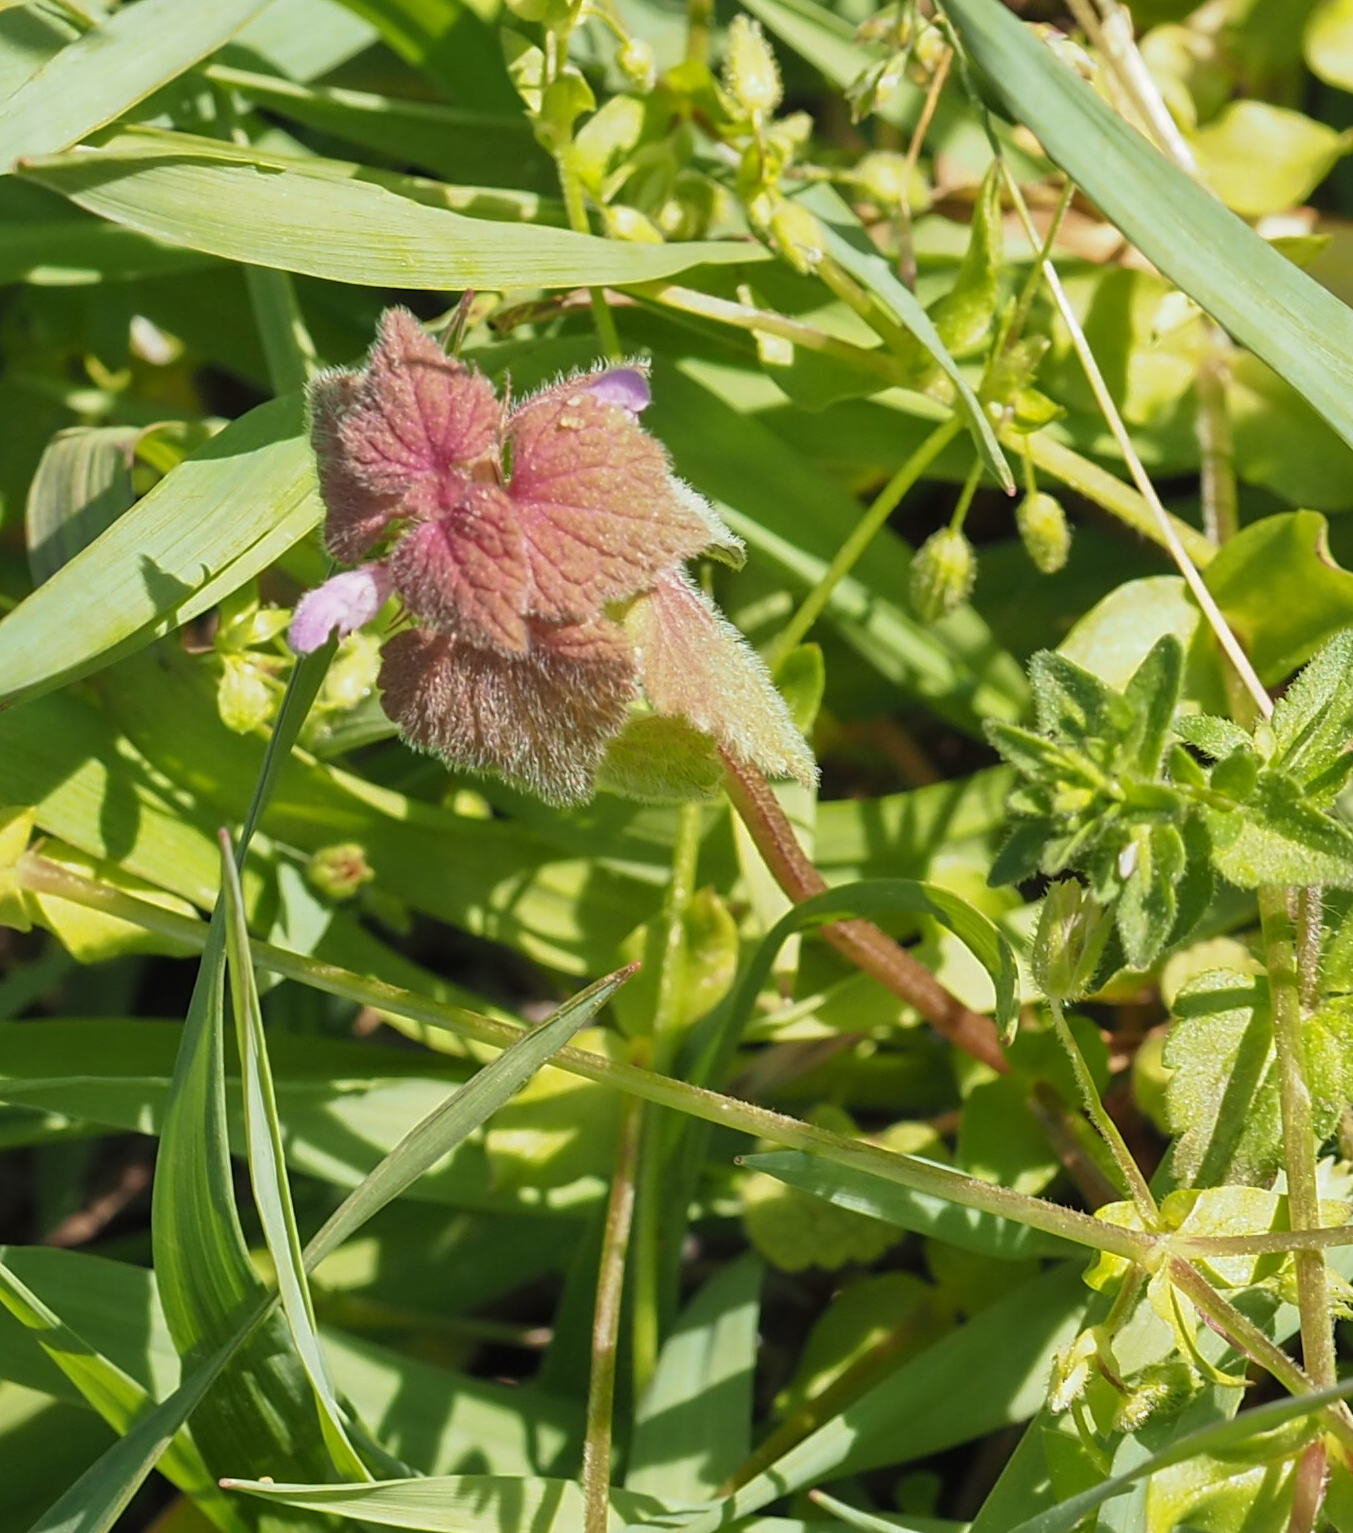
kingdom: Plantae
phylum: Tracheophyta
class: Magnoliopsida
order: Lamiales
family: Lamiaceae
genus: Lamium
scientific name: Lamium purpureum
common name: Red dead-nettle
